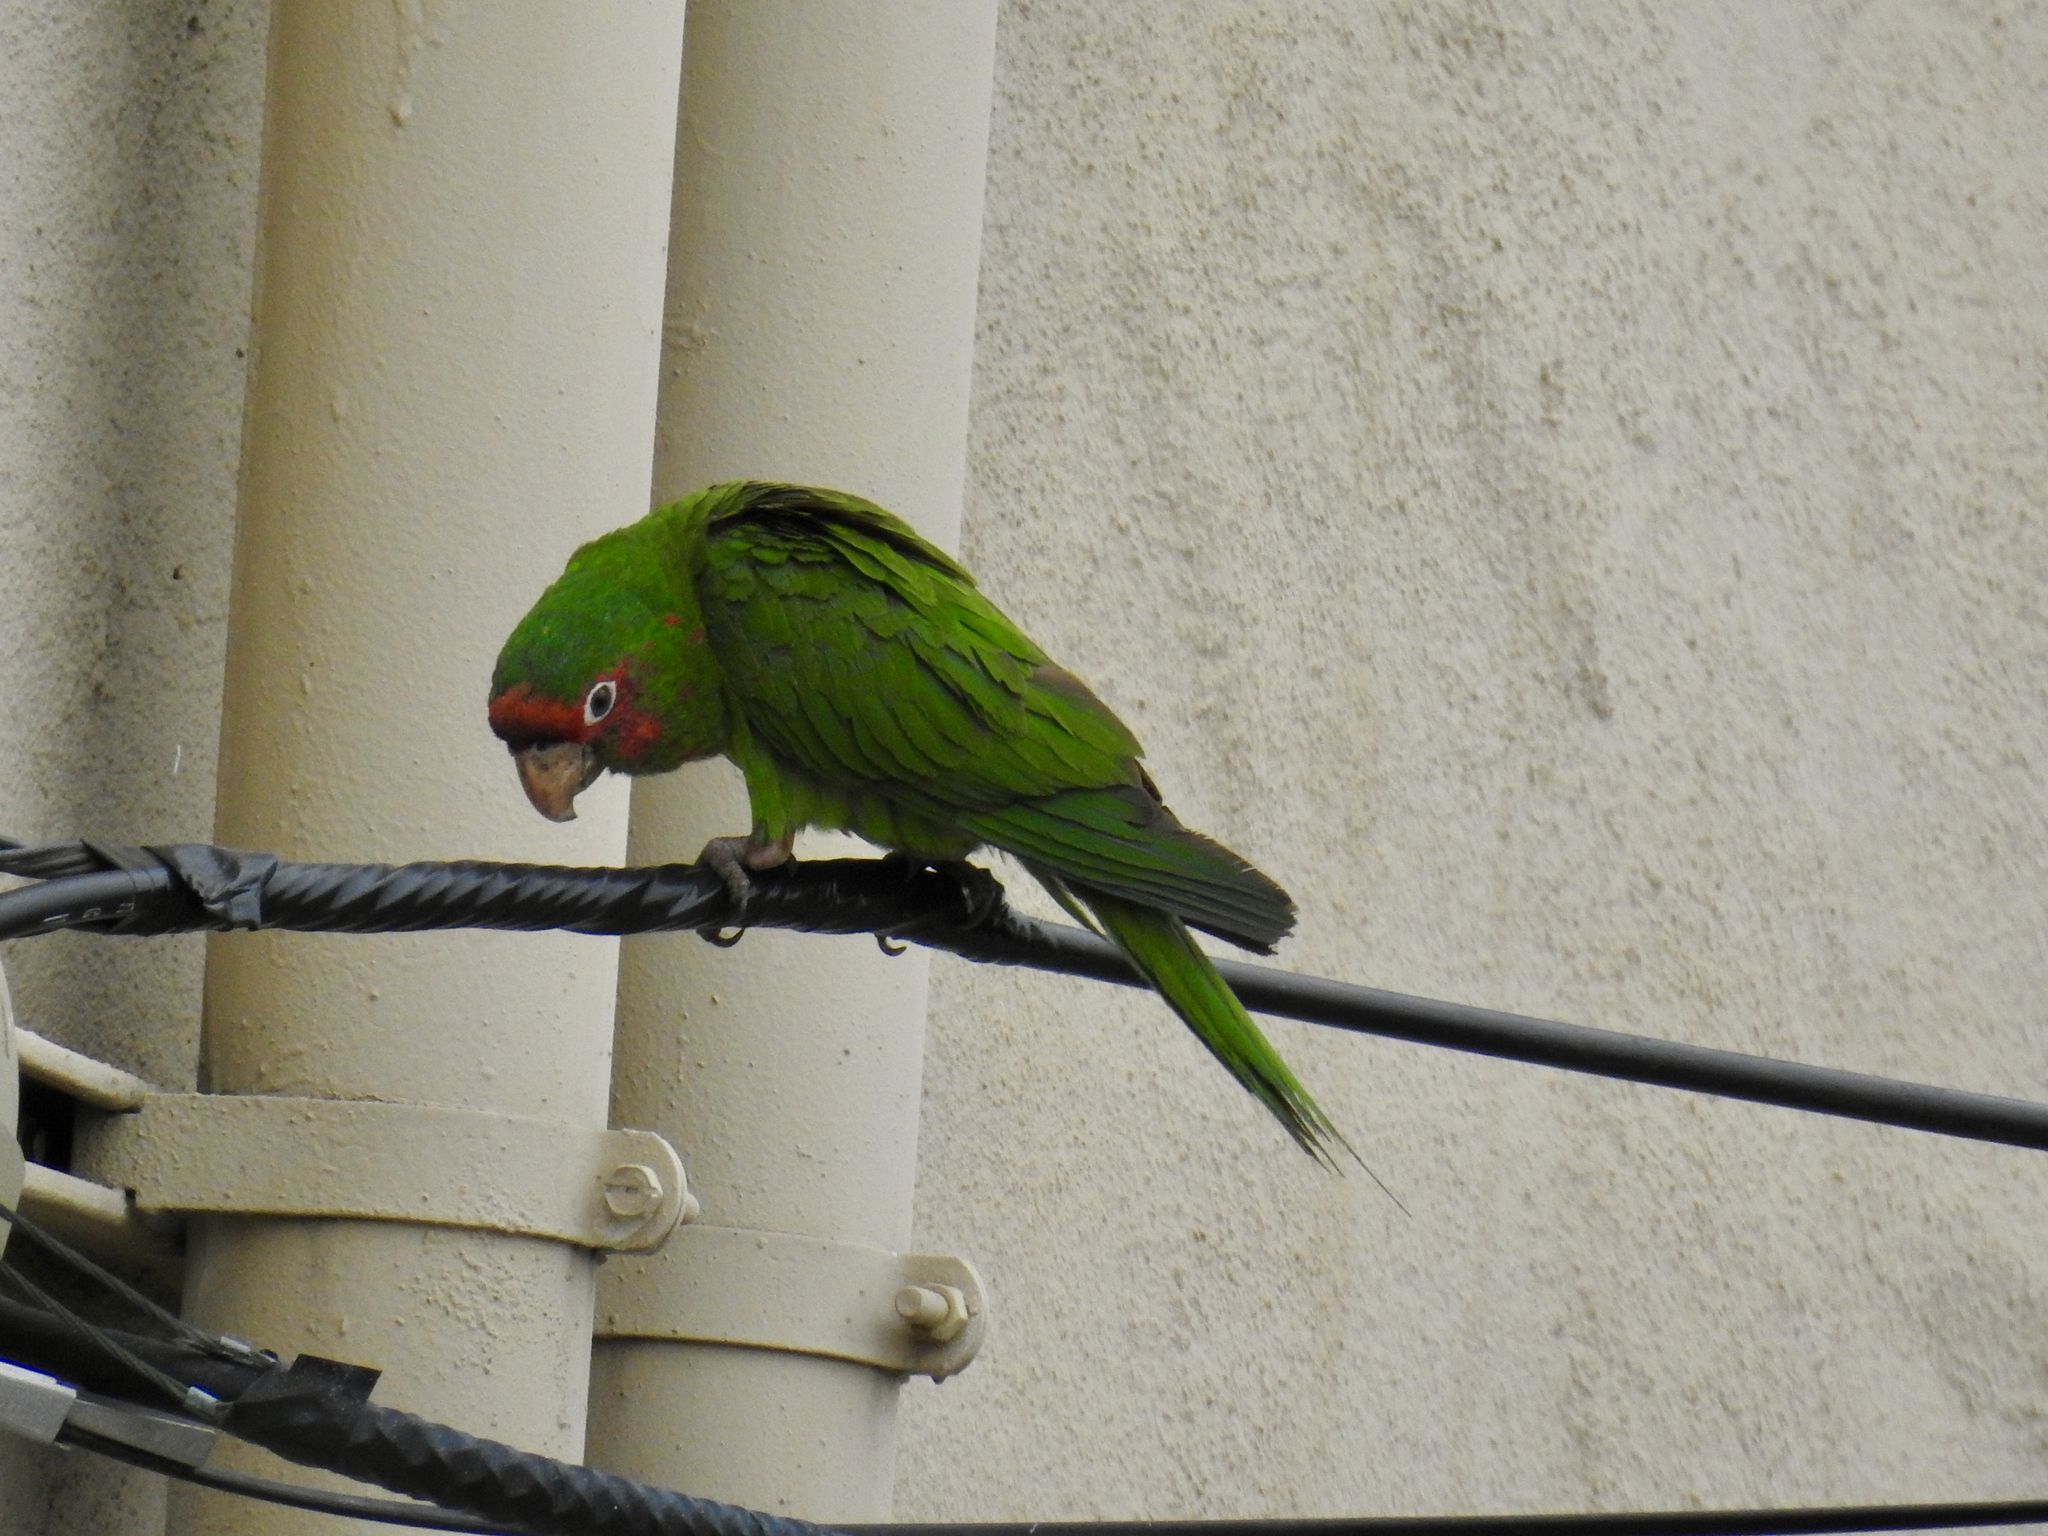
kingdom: Animalia
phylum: Chordata
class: Aves
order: Psittaciformes
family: Psittacidae
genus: Aratinga
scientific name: Aratinga mitrata
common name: Mitred parakeet
